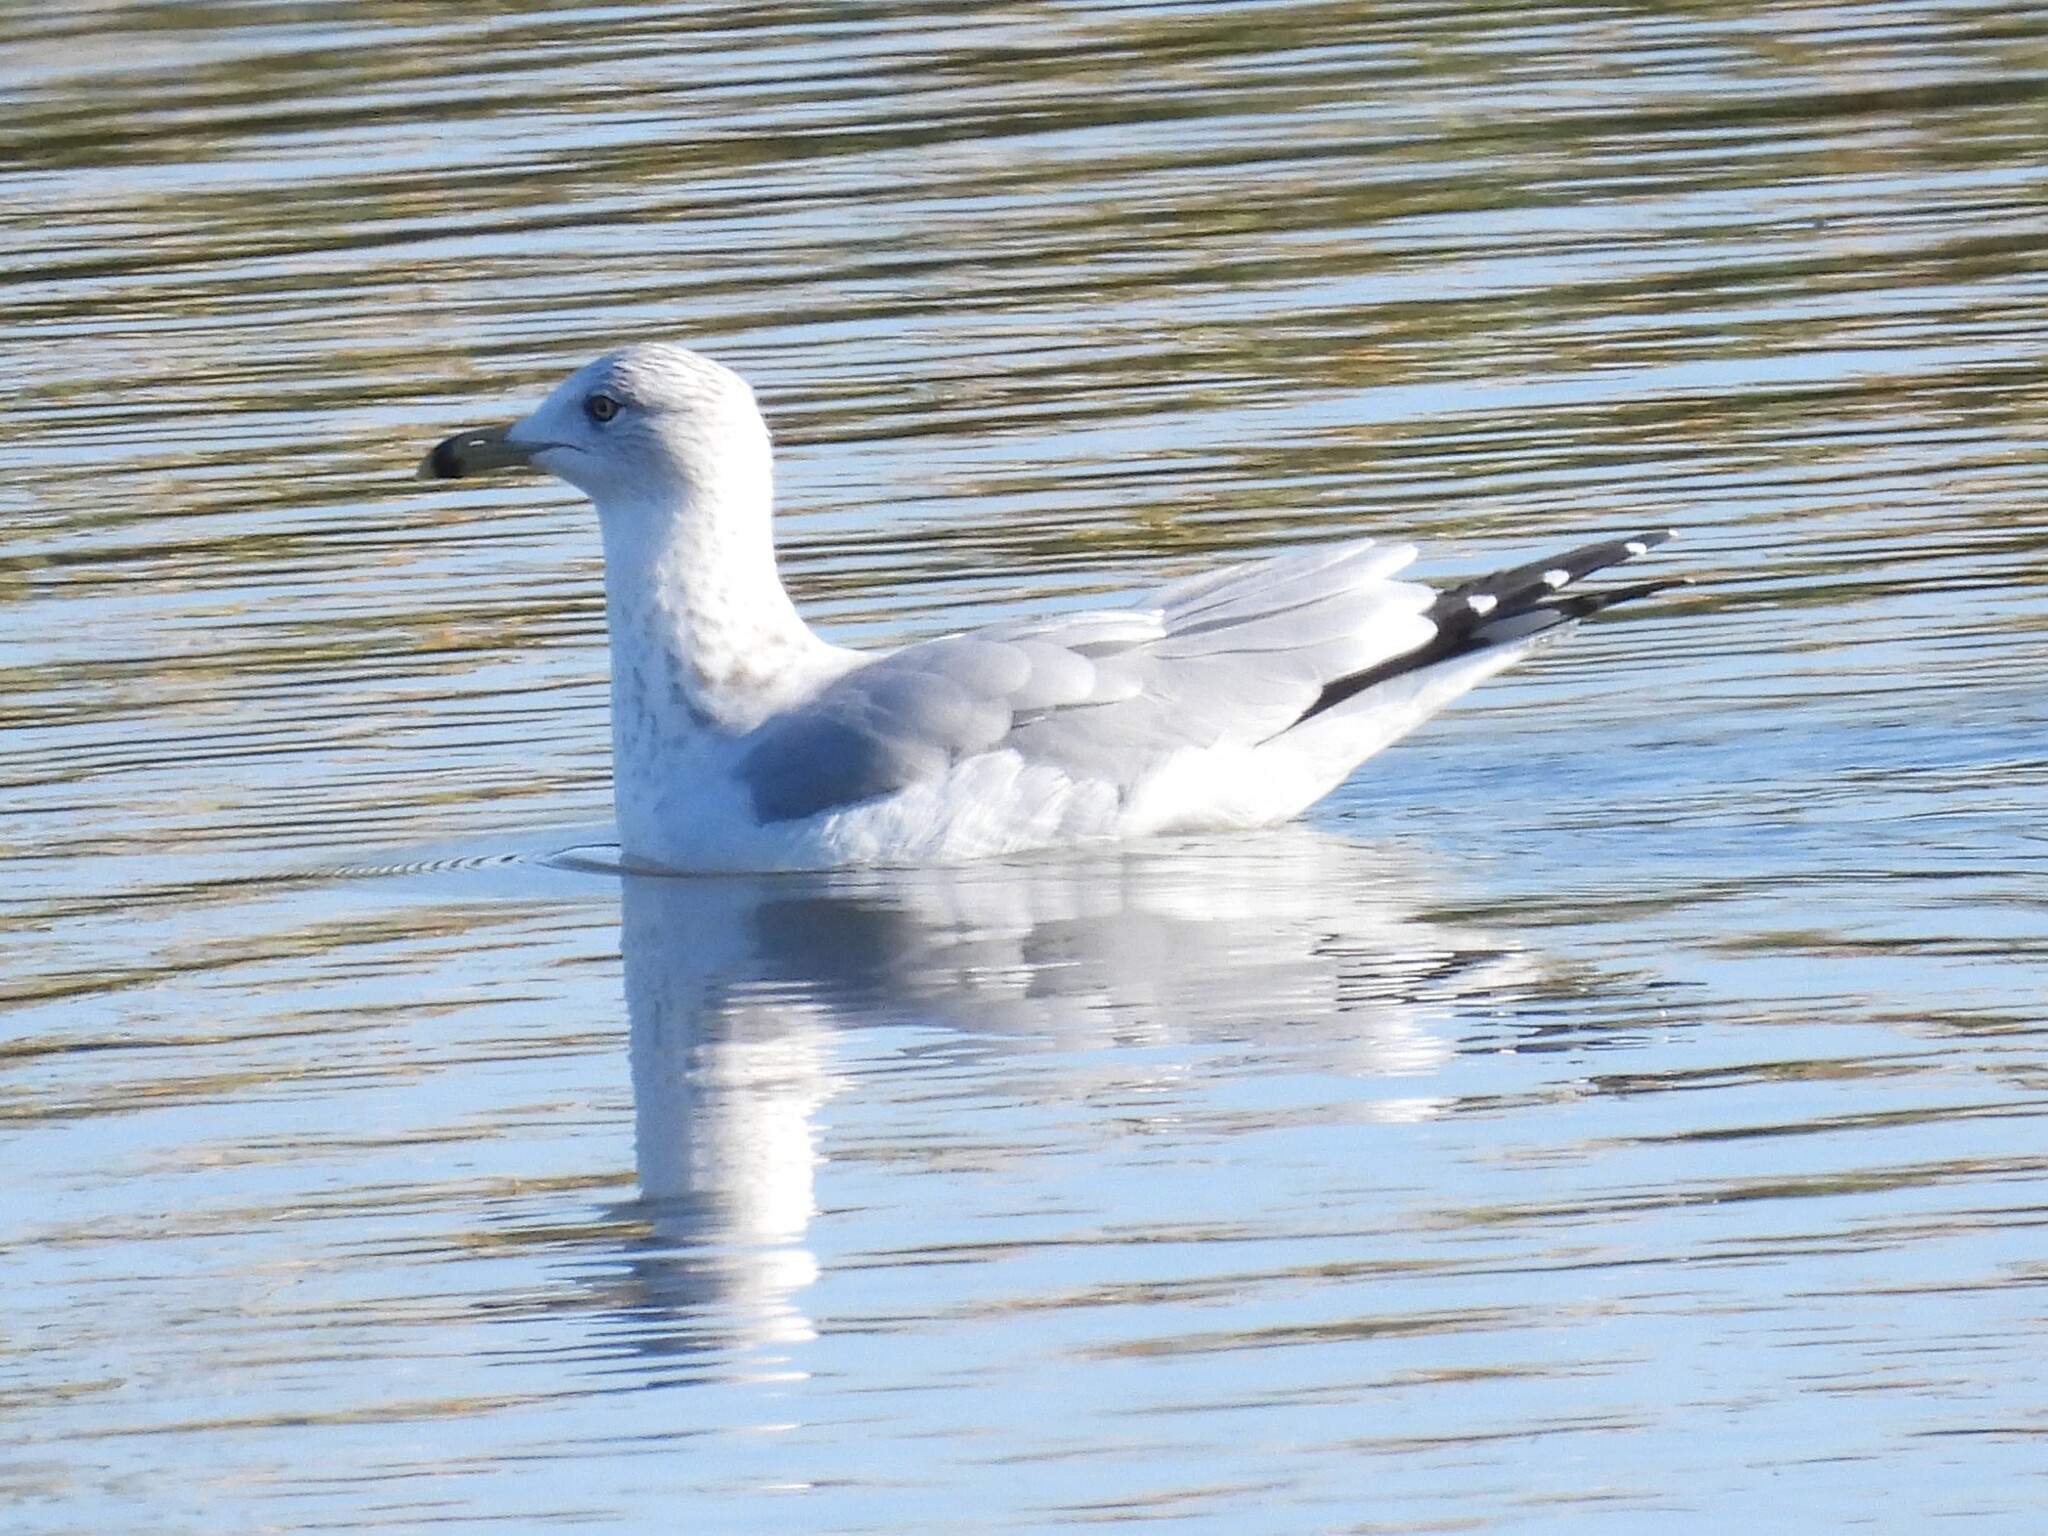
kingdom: Animalia
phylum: Chordata
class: Aves
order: Charadriiformes
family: Laridae
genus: Larus
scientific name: Larus delawarensis
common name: Ring-billed gull
